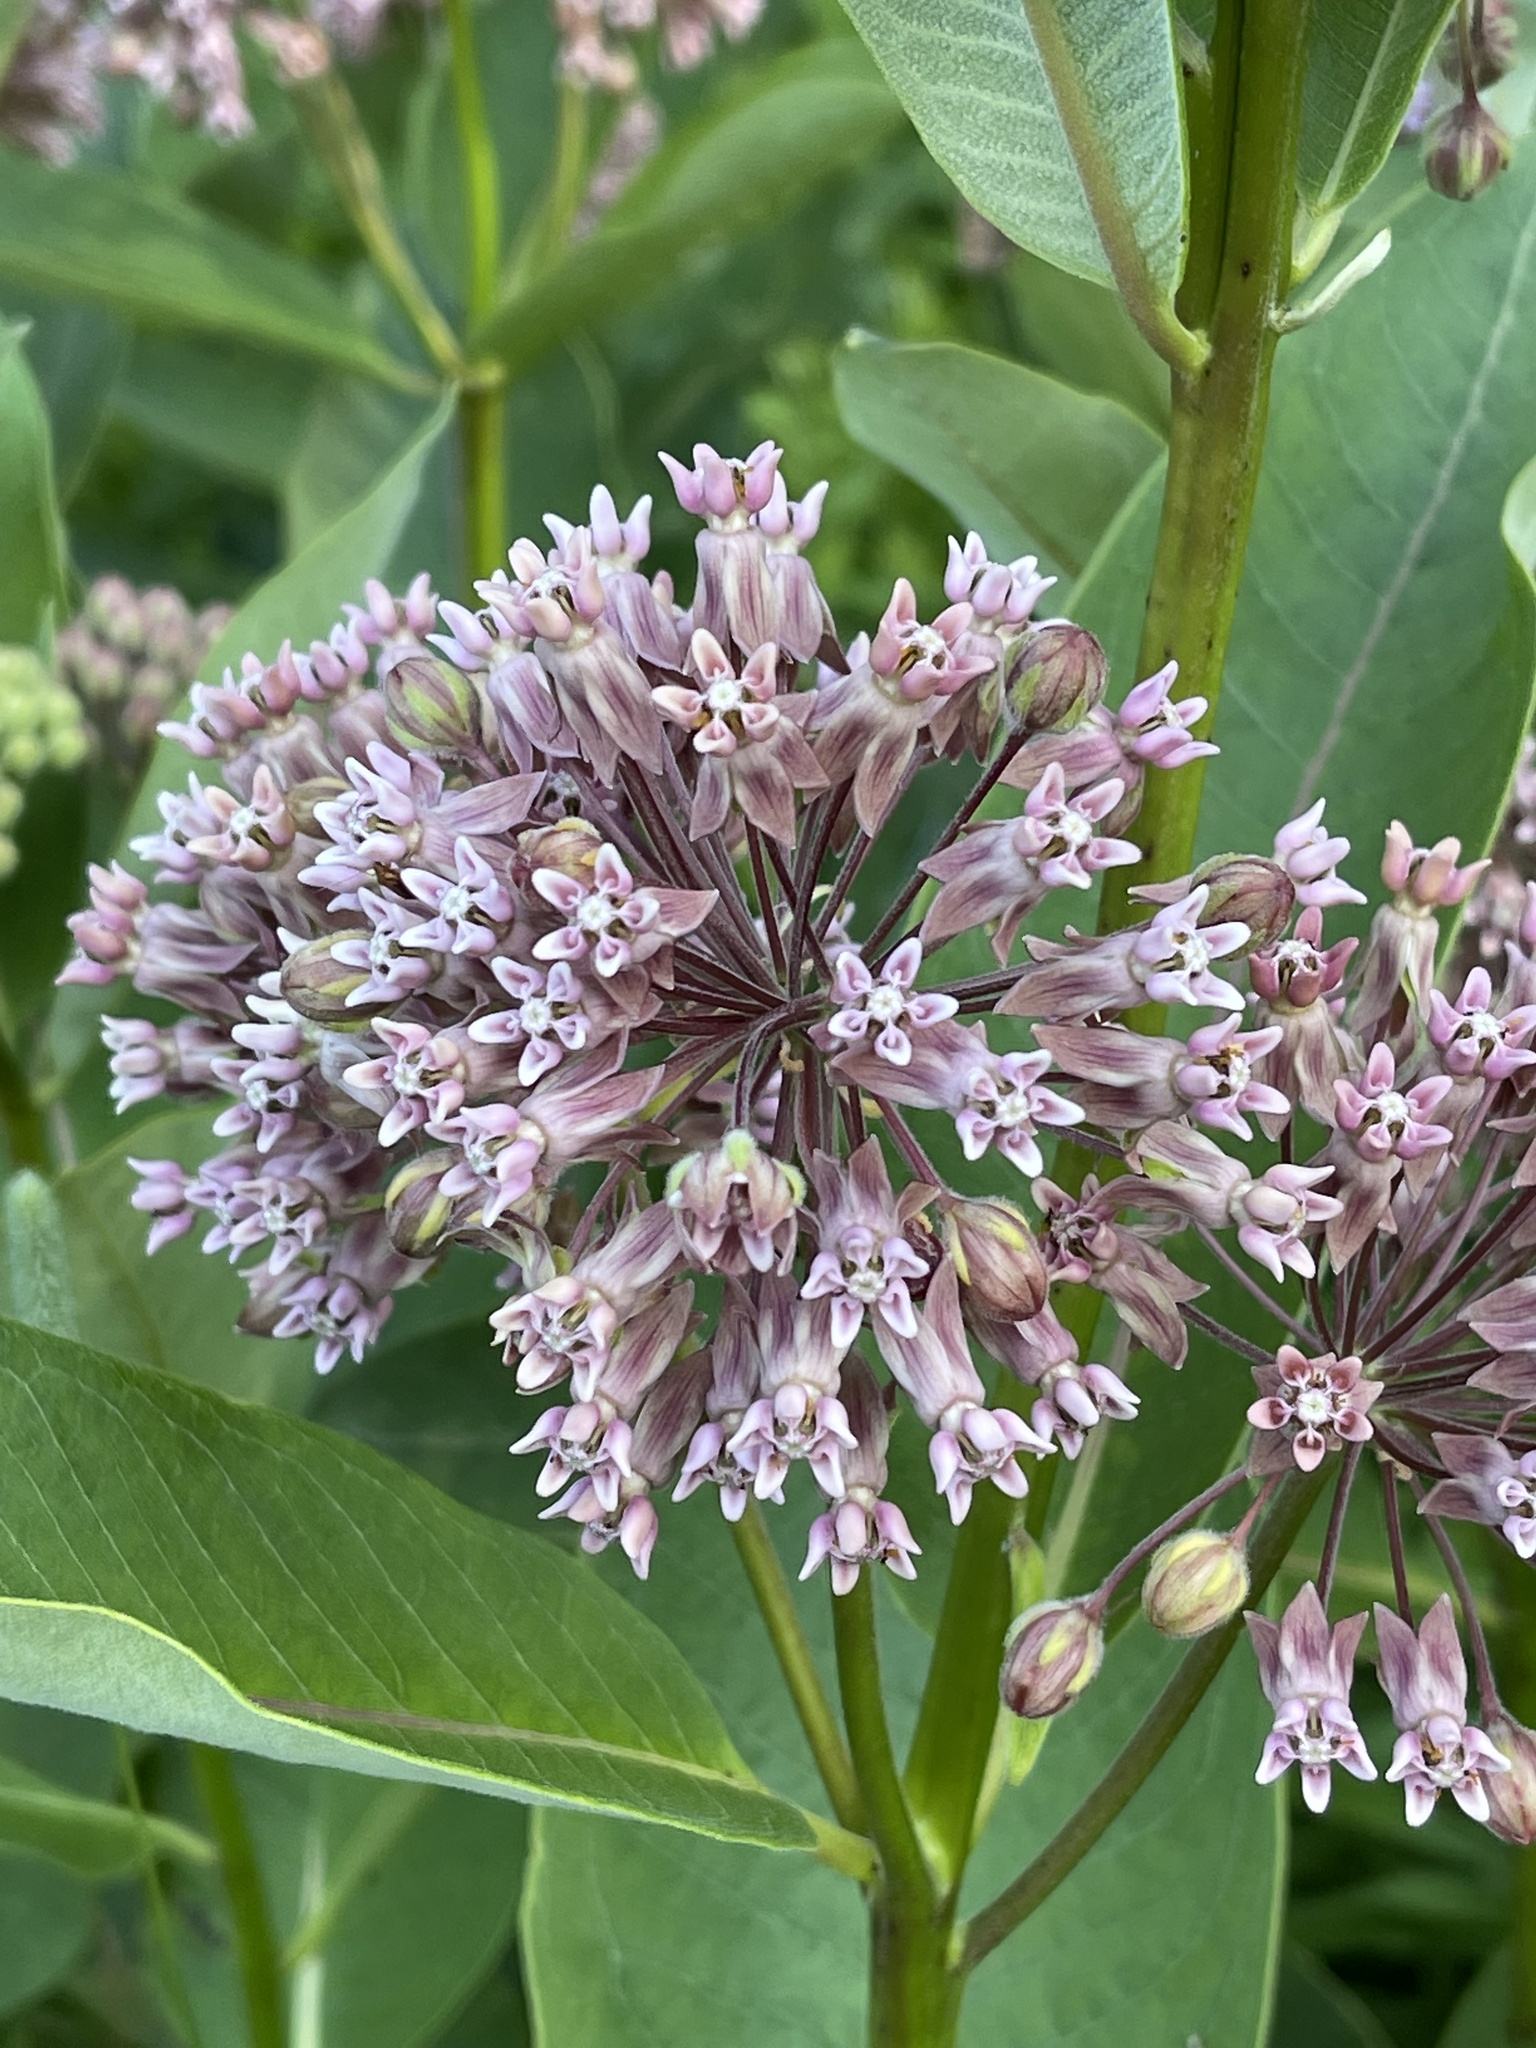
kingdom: Plantae
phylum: Tracheophyta
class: Magnoliopsida
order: Gentianales
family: Apocynaceae
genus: Asclepias
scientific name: Asclepias syriaca
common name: Common milkweed
